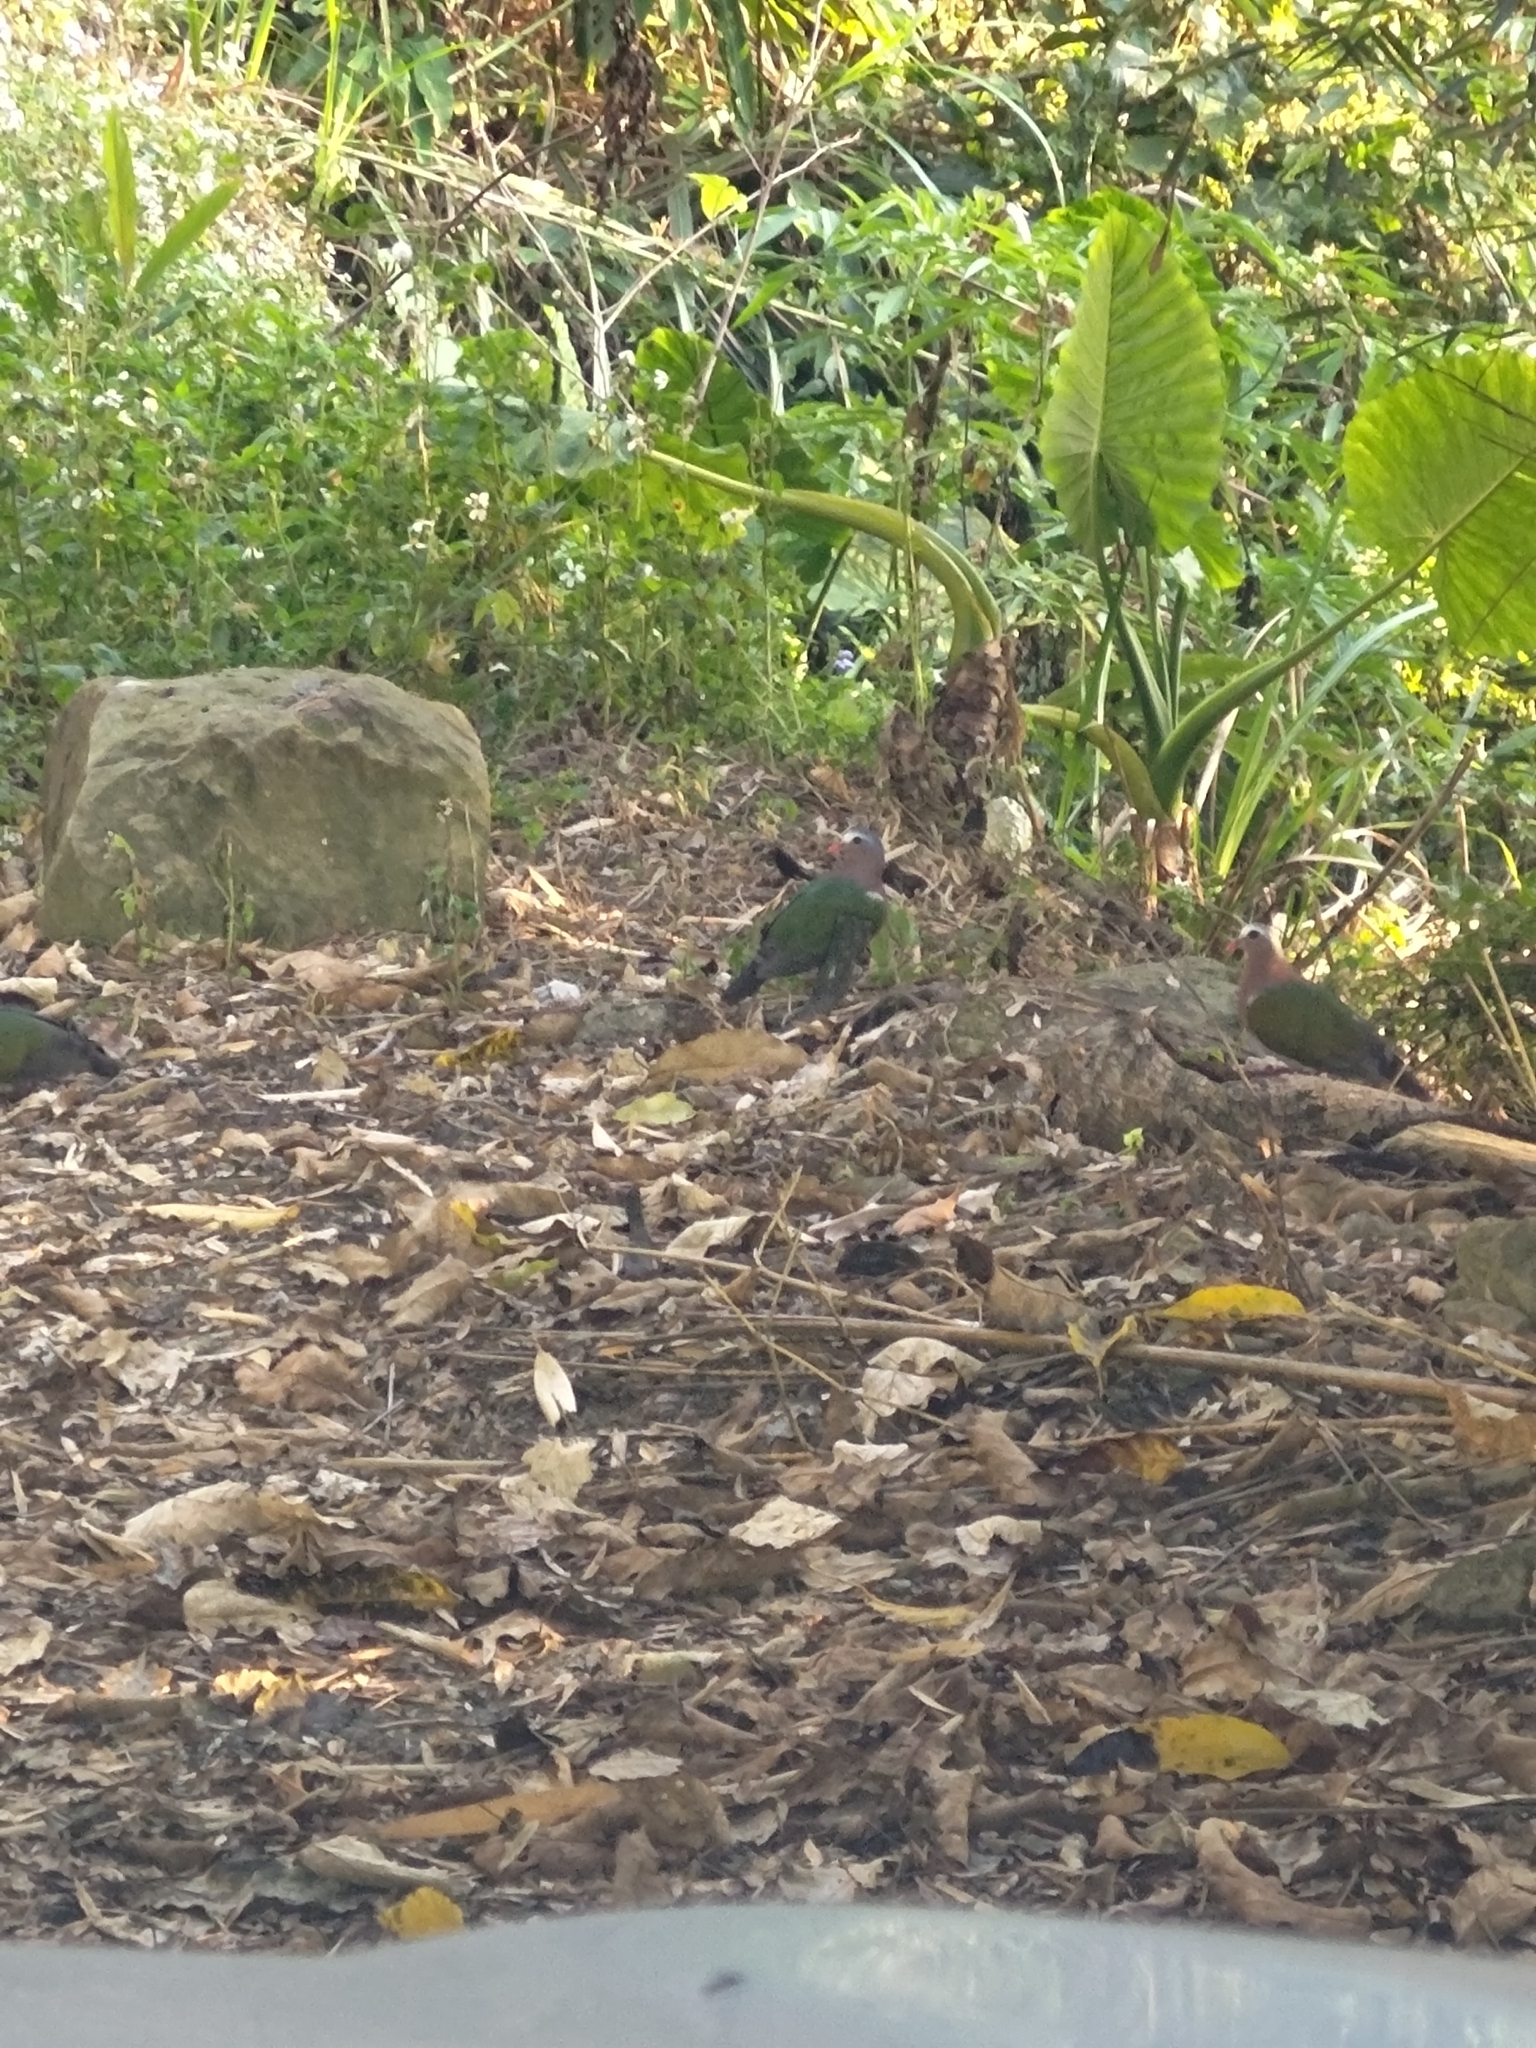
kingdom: Animalia
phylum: Chordata
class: Aves
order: Columbiformes
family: Columbidae
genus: Chalcophaps
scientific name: Chalcophaps indica
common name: Common emerald dove
